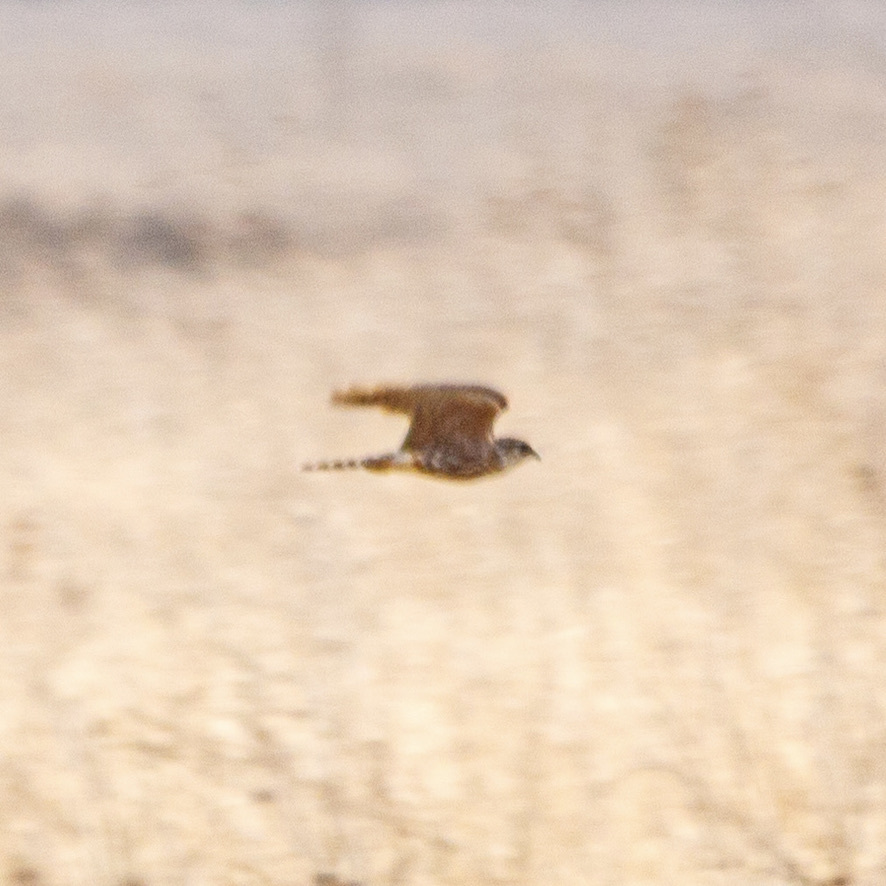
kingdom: Animalia
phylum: Chordata
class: Aves
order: Falconiformes
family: Falconidae
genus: Falco
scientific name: Falco columbarius
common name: Merlin
